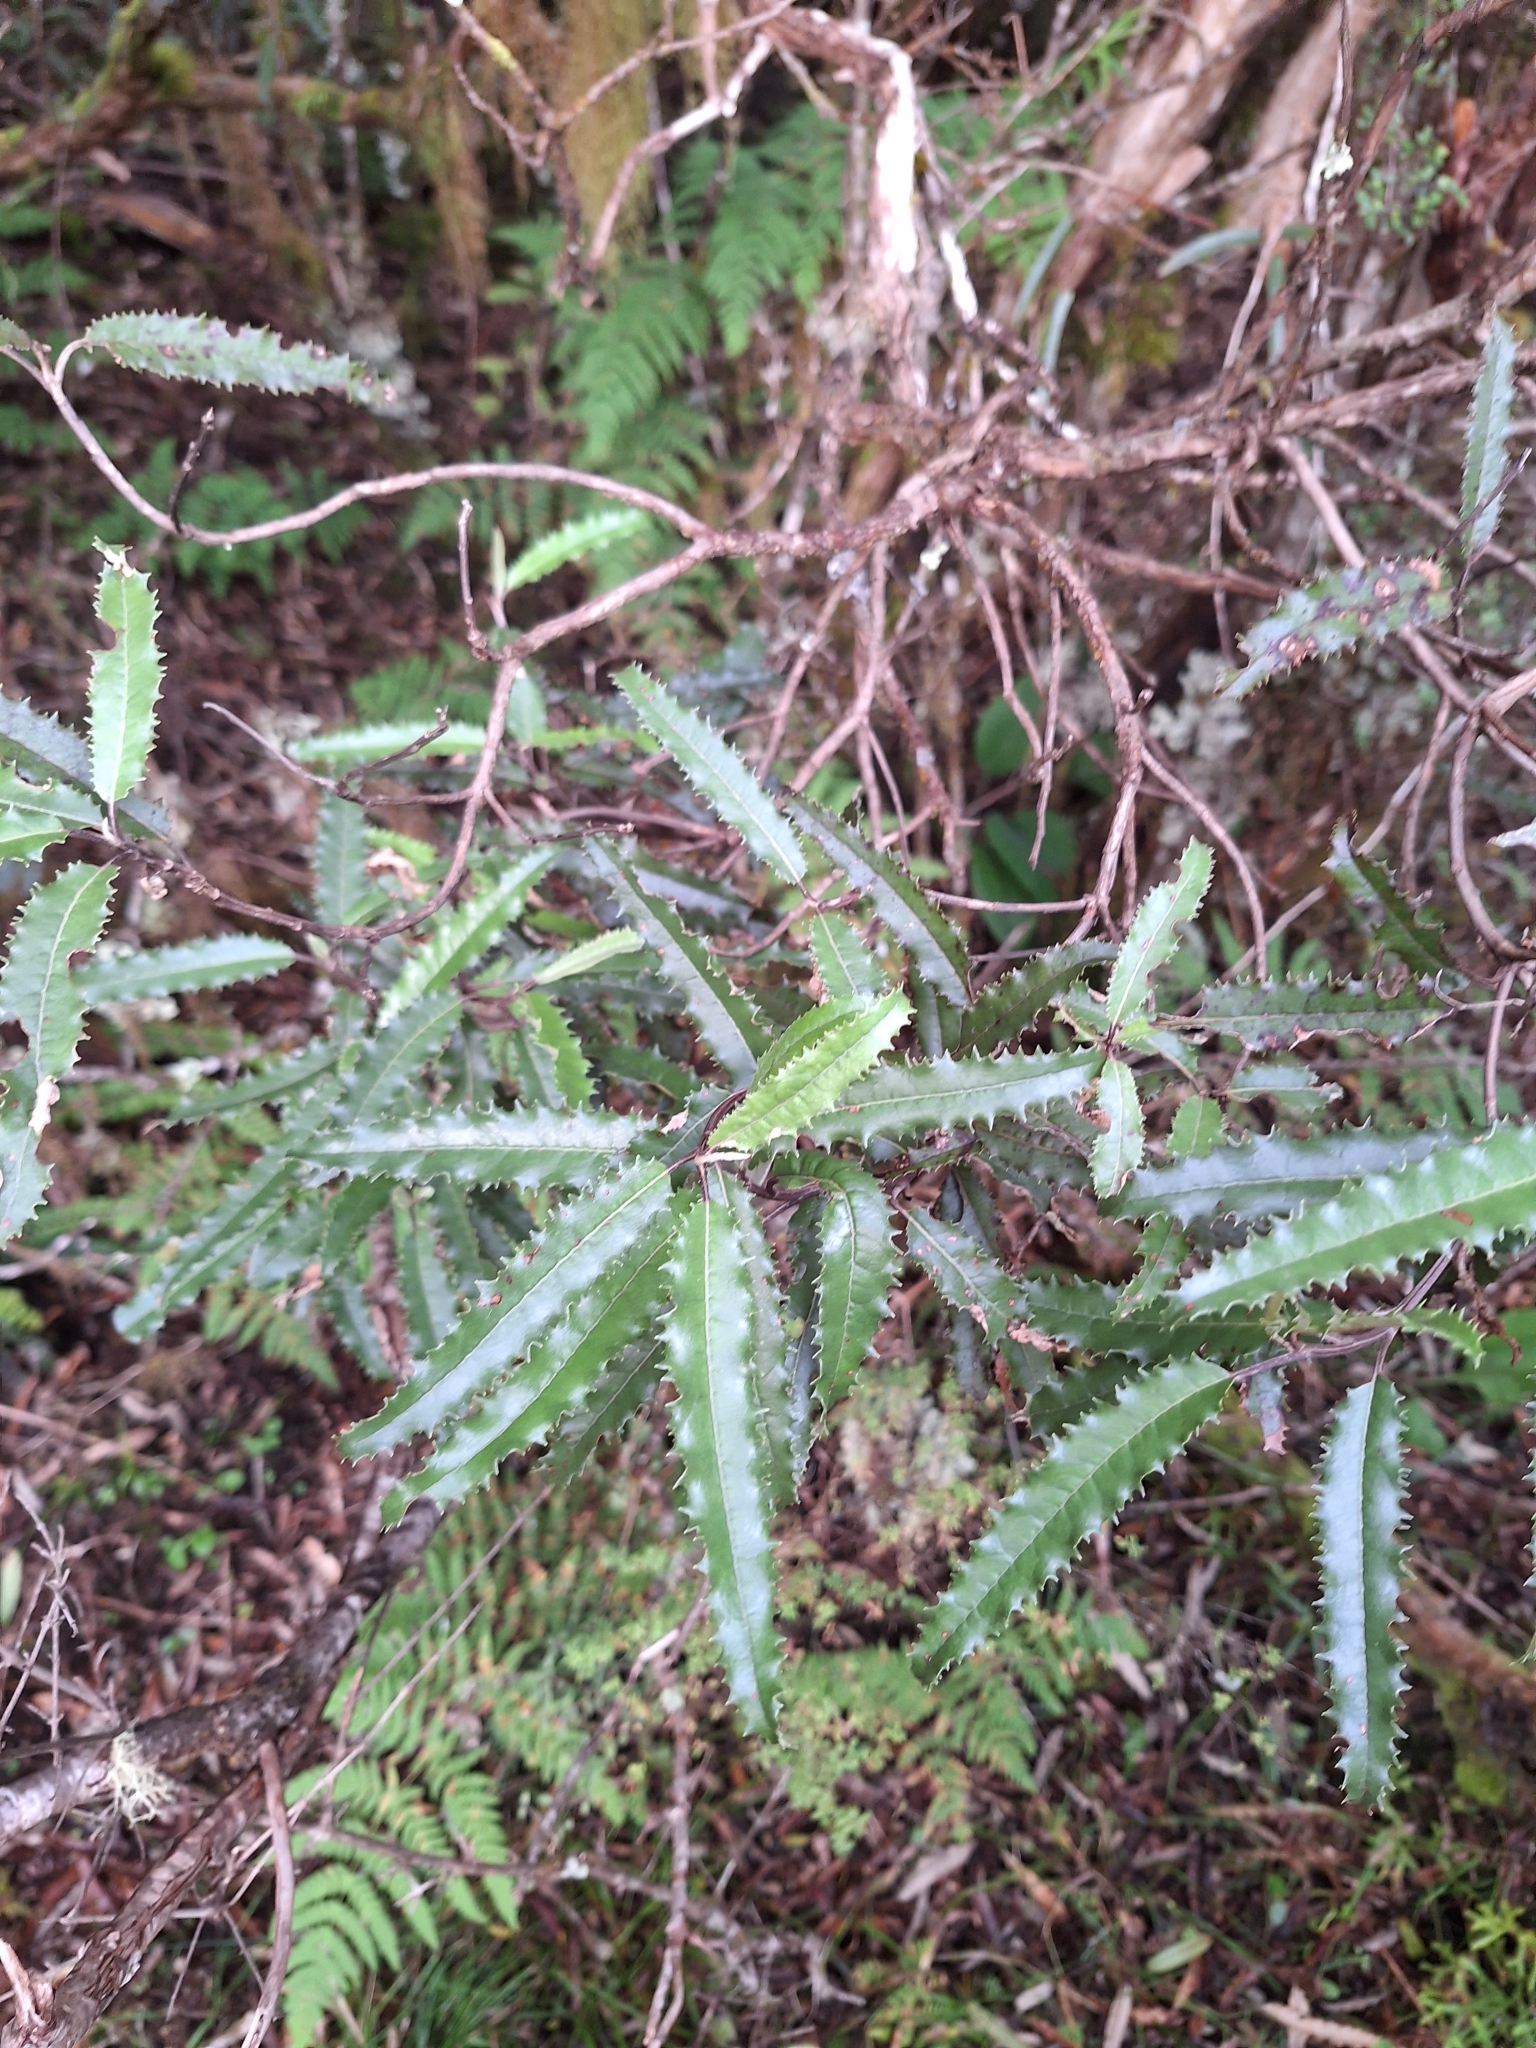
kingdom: Plantae
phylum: Tracheophyta
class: Magnoliopsida
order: Asterales
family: Asteraceae
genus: Olearia
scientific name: Olearia ilicifolia
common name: Maori-holly
